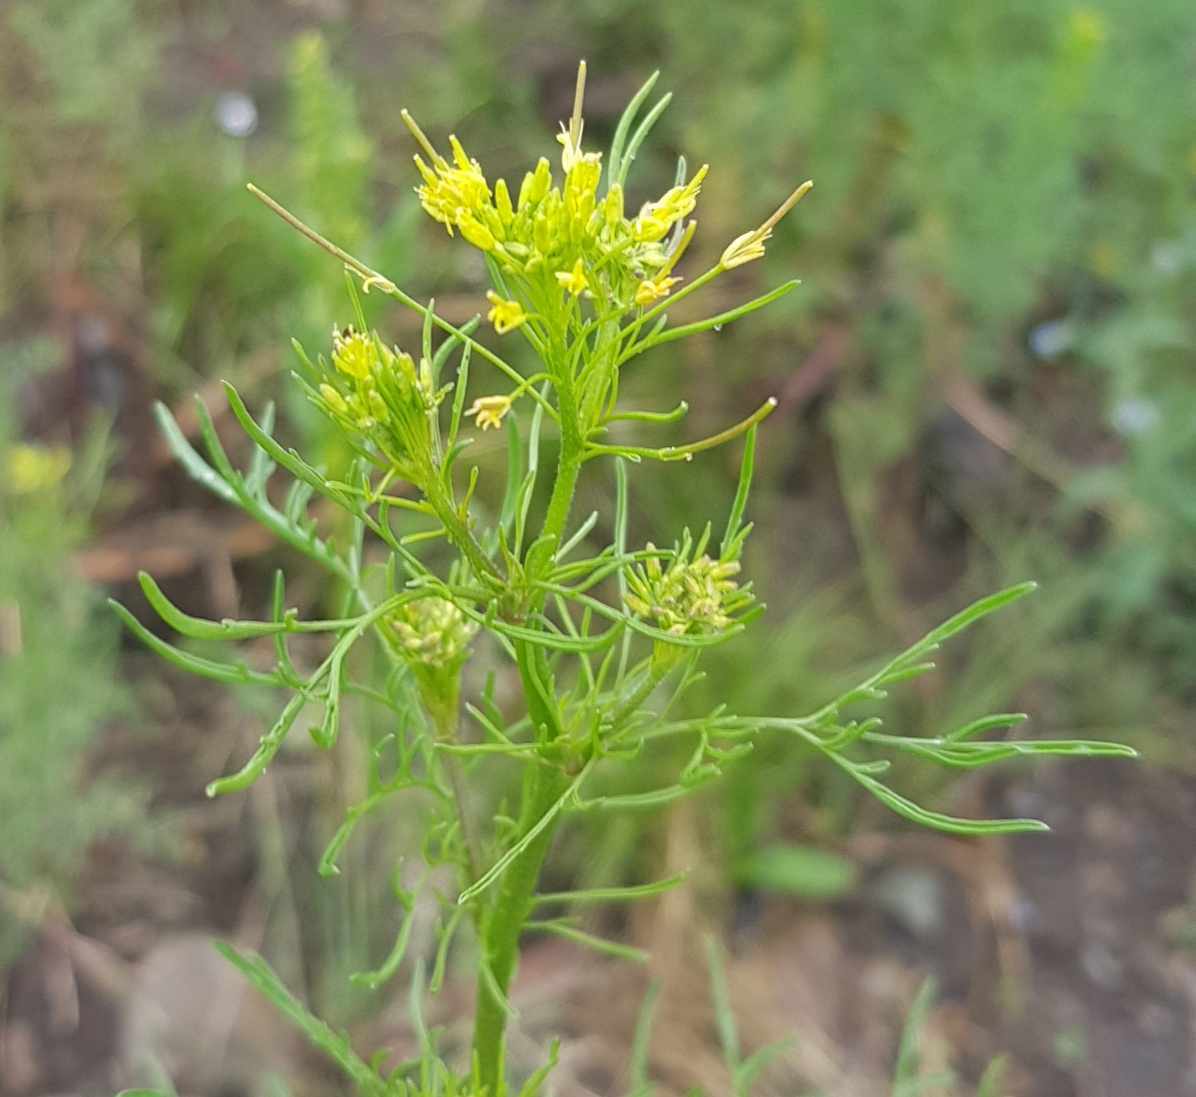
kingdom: Plantae
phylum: Tracheophyta
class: Magnoliopsida
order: Brassicales
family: Brassicaceae
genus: Descurainia
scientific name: Descurainia sophia
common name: Flixweed
